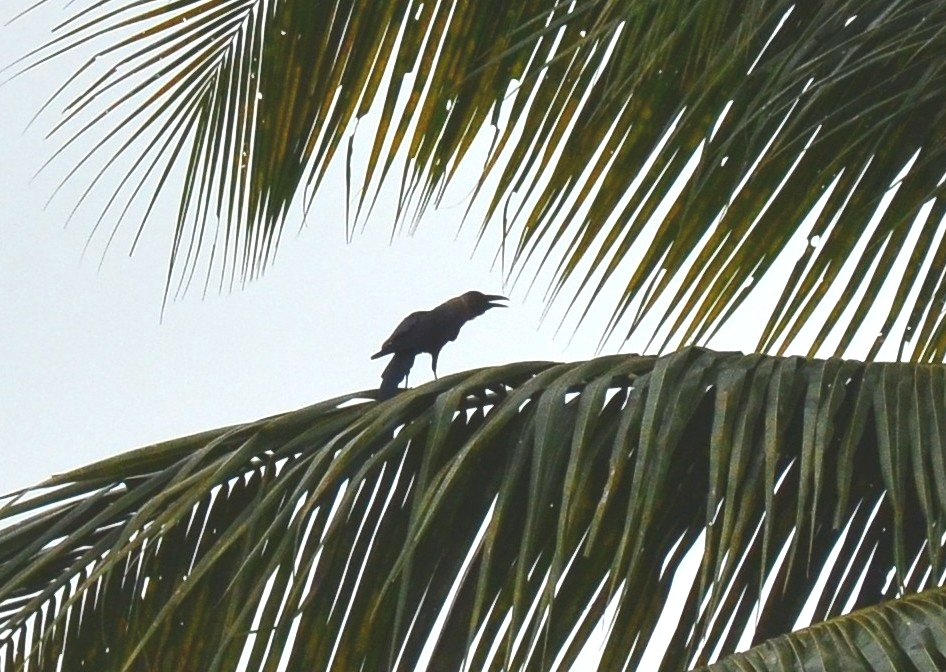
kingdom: Animalia
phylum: Chordata
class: Aves
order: Passeriformes
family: Corvidae
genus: Corvus
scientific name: Corvus splendens
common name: House crow
